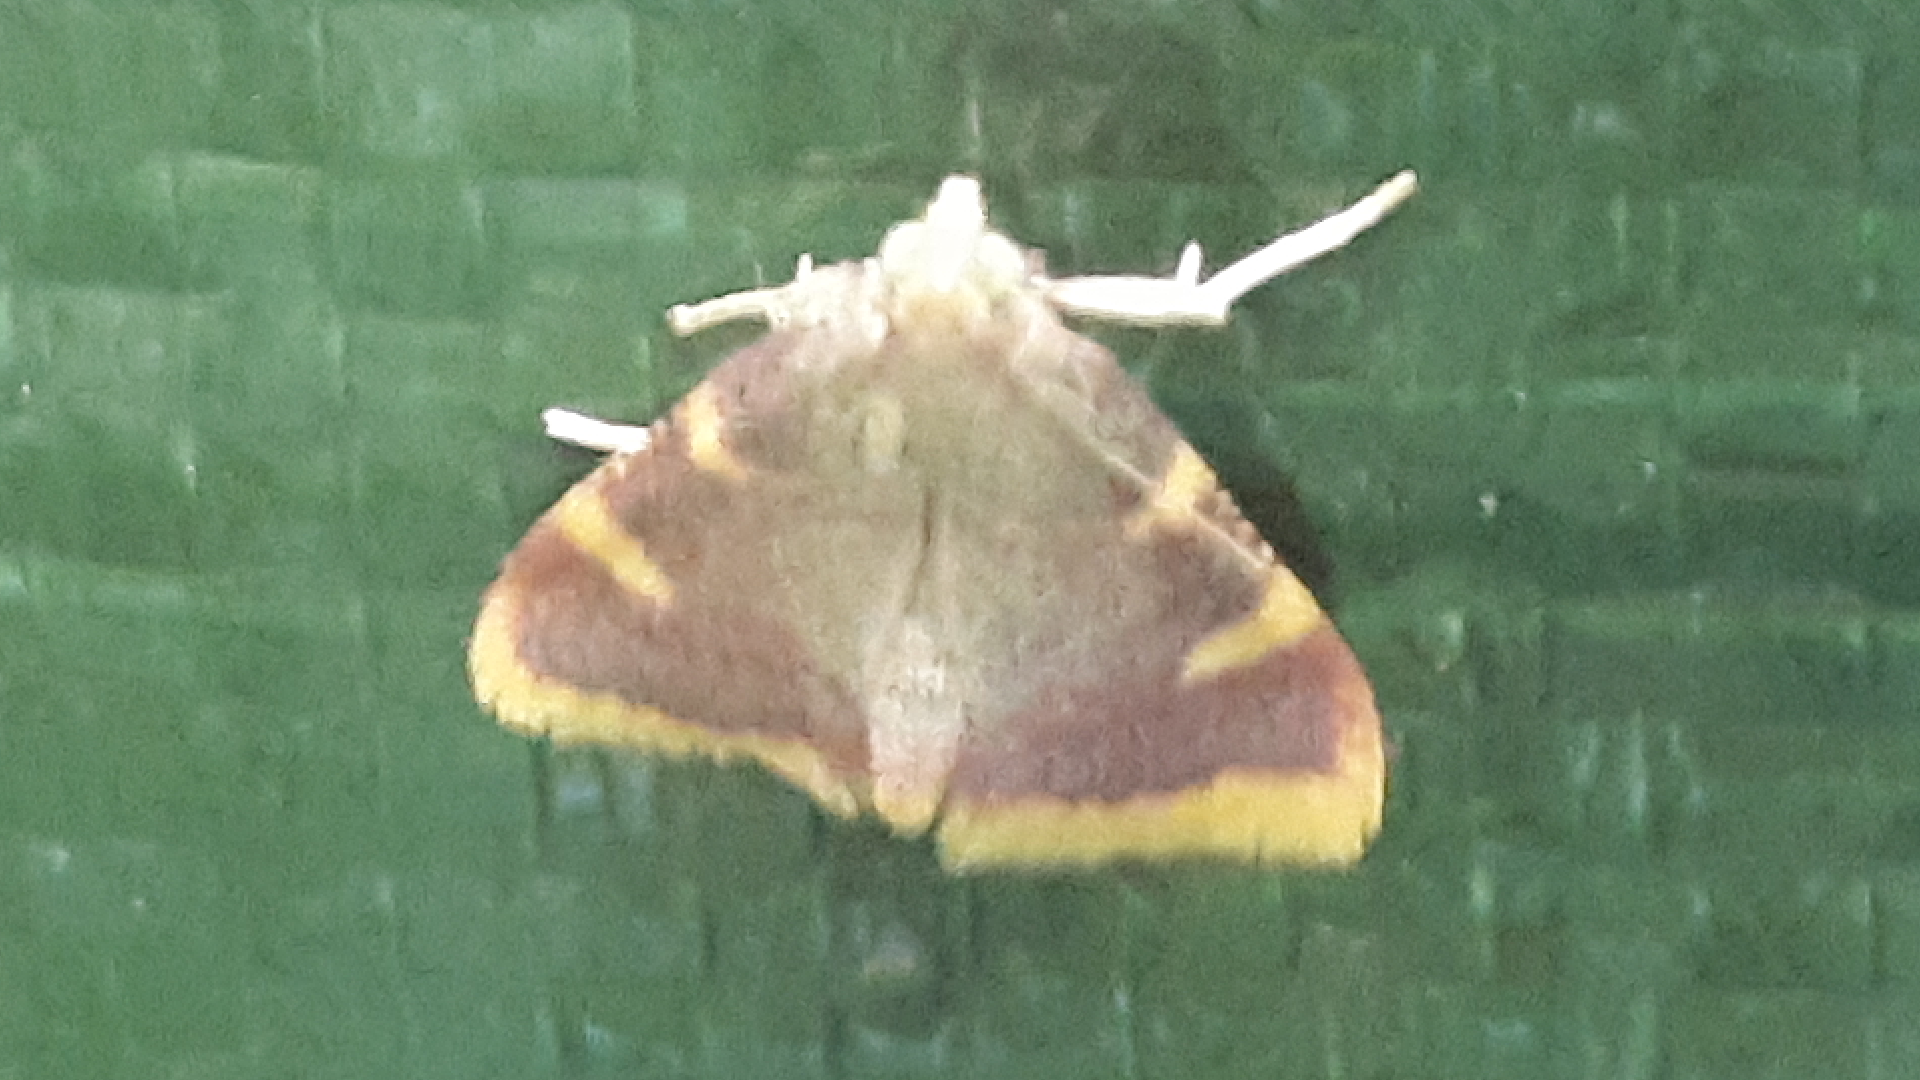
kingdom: Animalia
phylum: Arthropoda
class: Insecta
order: Lepidoptera
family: Pyralidae
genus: Hypsopygia
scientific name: Hypsopygia costalis
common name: Gold triangle
